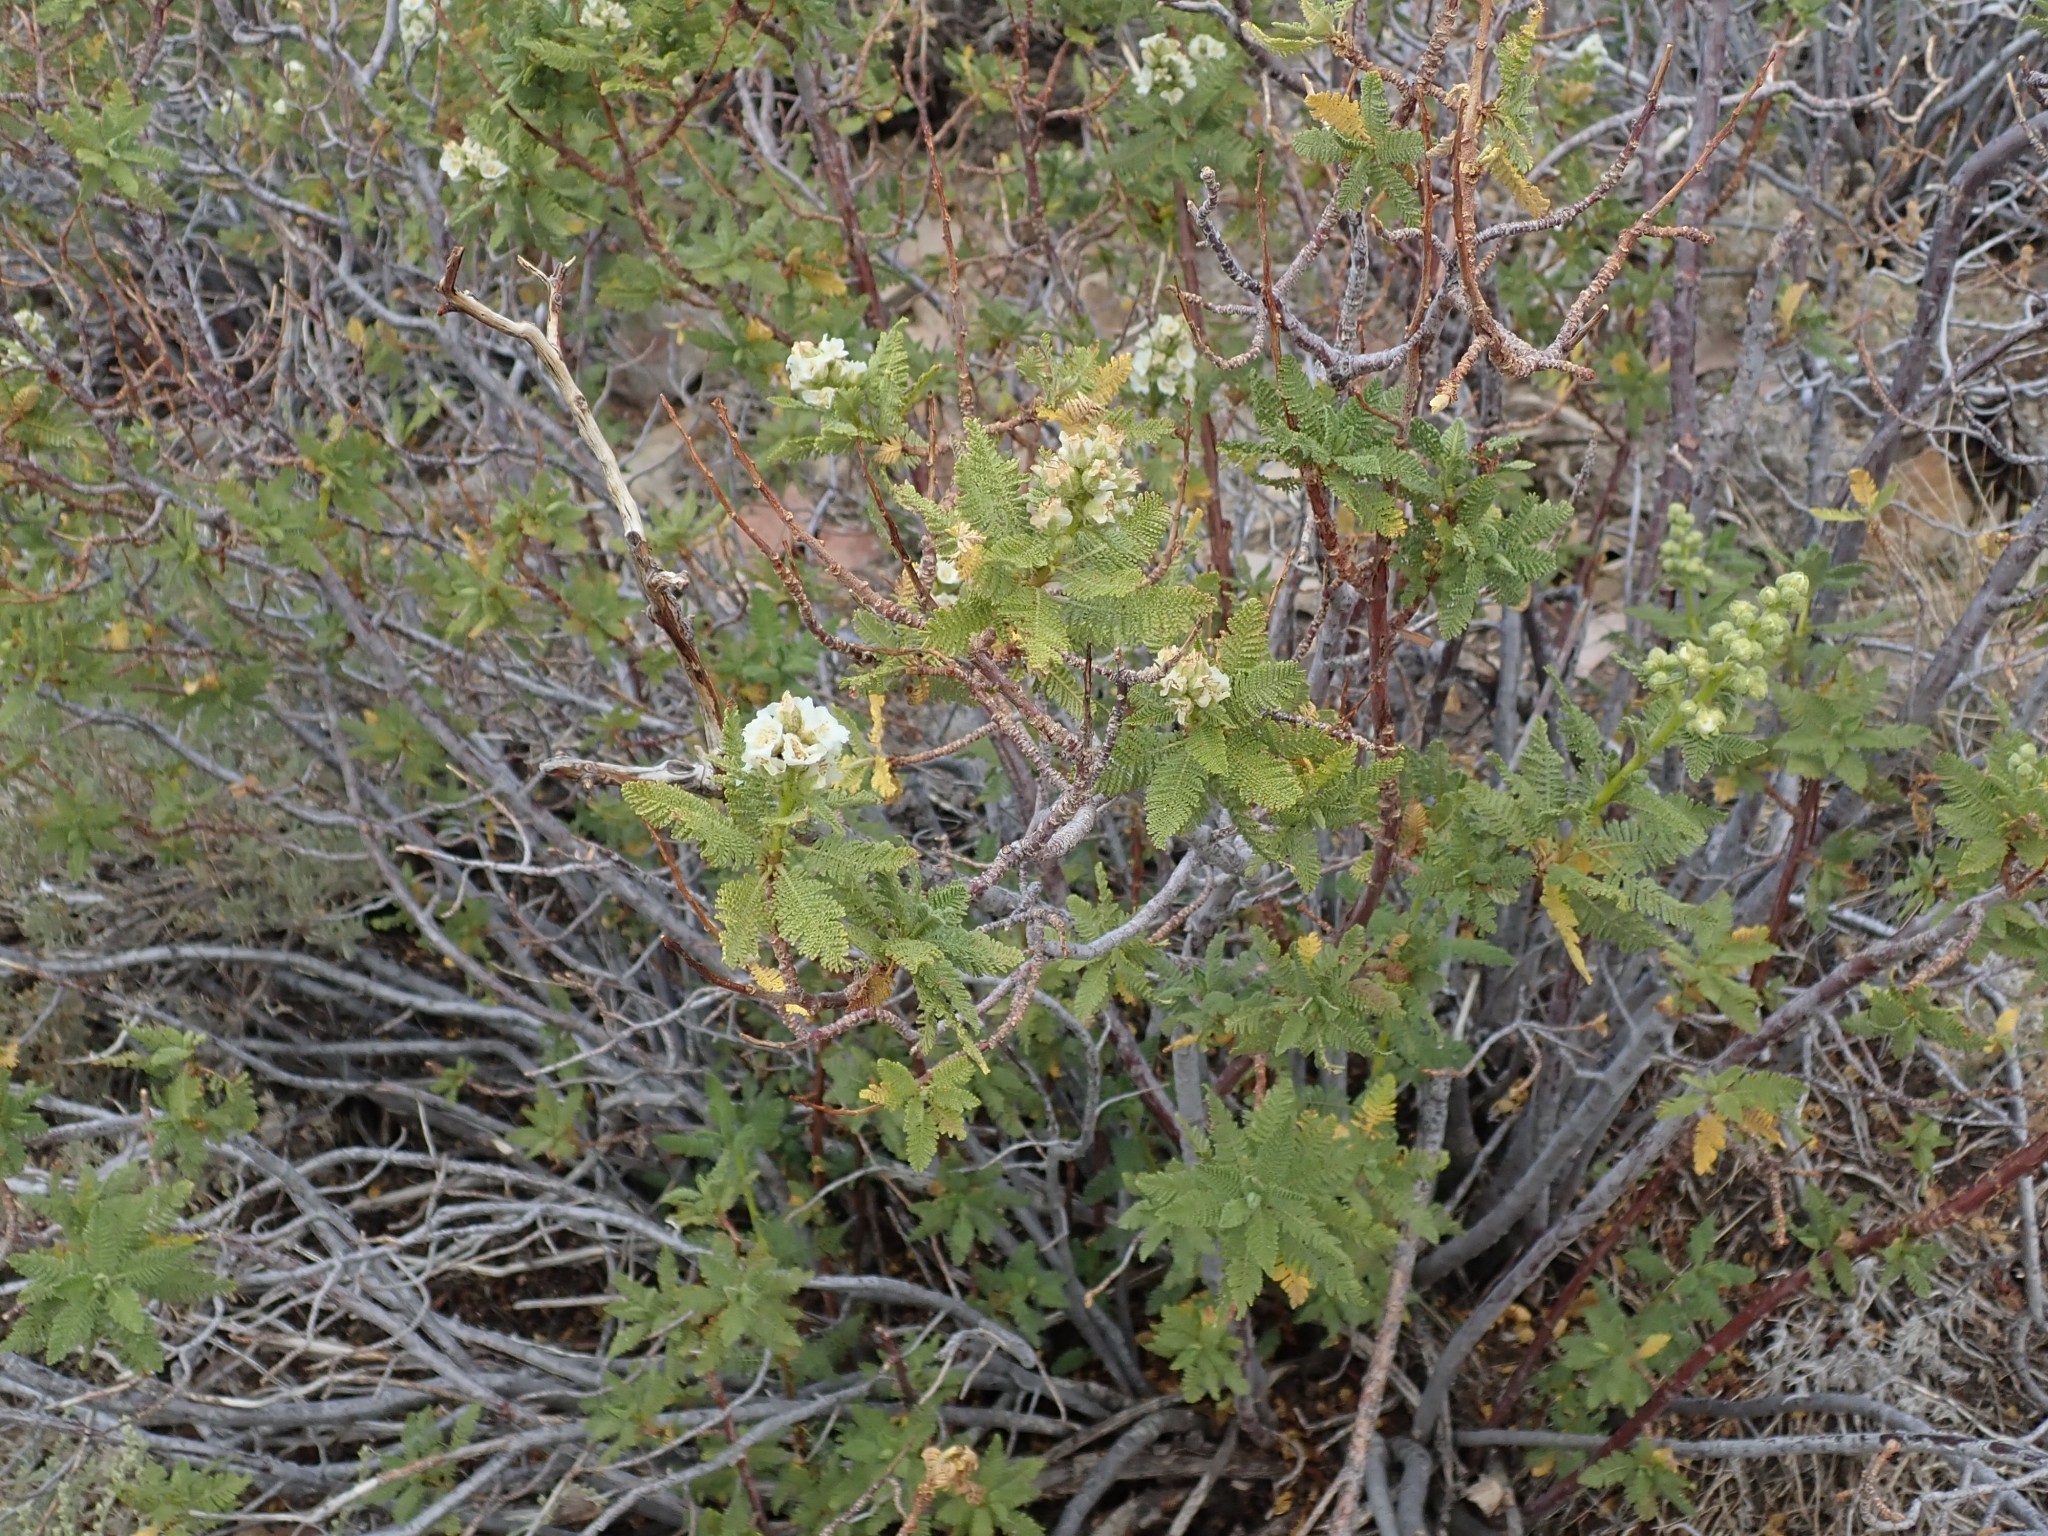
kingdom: Plantae
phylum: Tracheophyta
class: Magnoliopsida
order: Rosales
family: Rosaceae
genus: Chamaebatiaria
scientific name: Chamaebatiaria millefolium
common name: Fernbush
